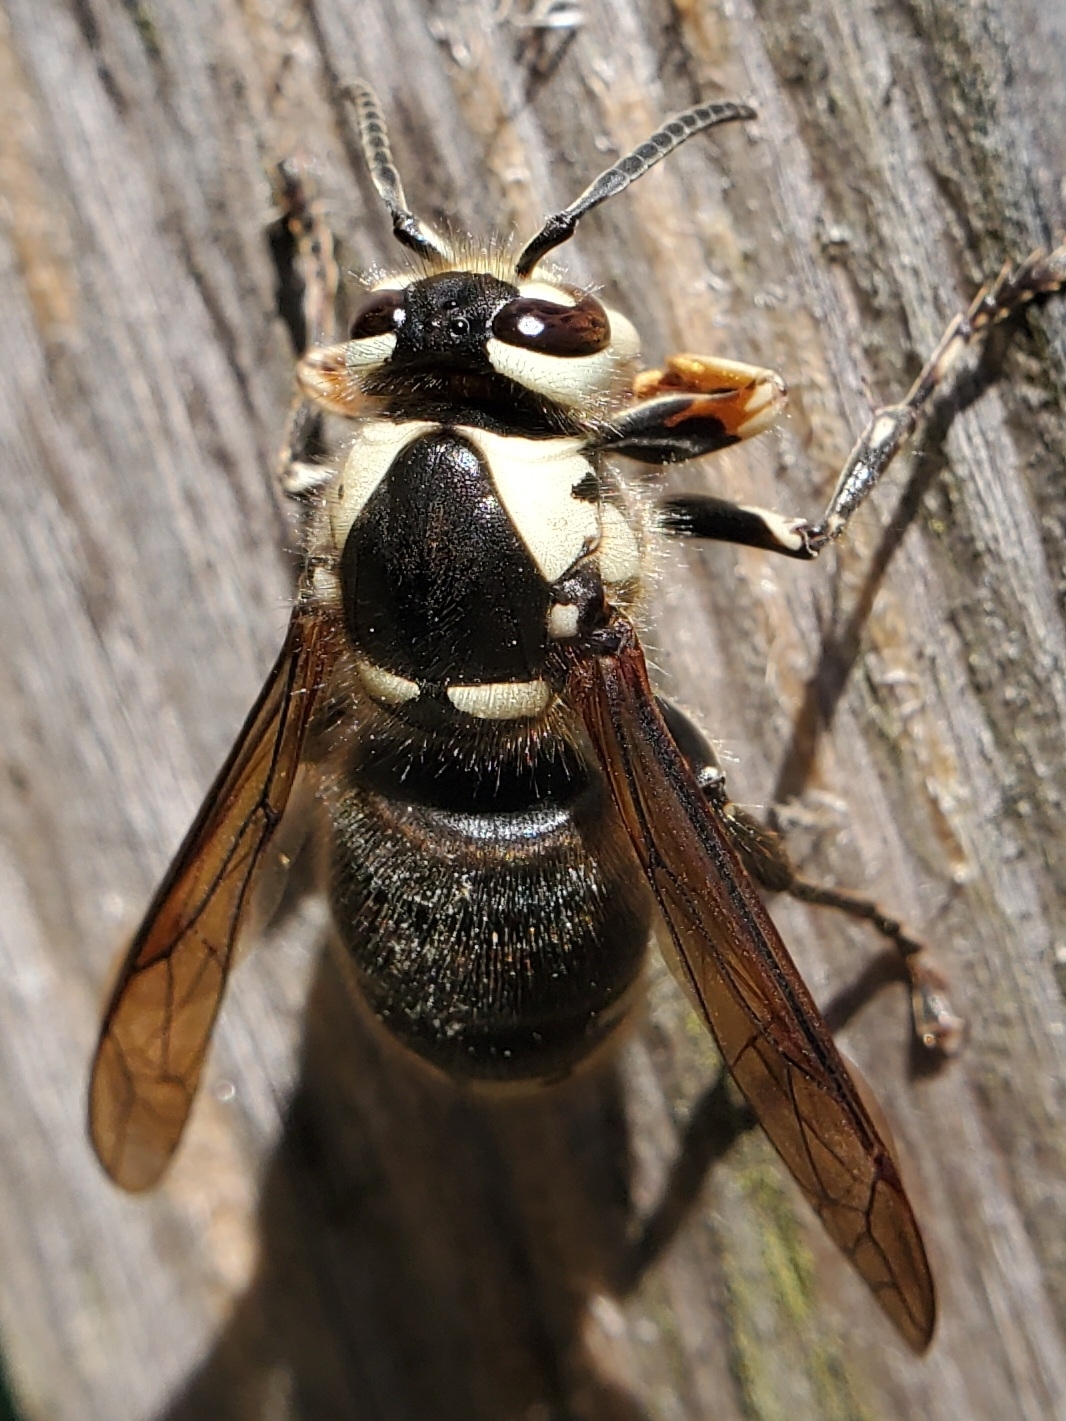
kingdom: Animalia
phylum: Arthropoda
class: Insecta
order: Hymenoptera
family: Vespidae
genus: Dolichovespula
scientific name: Dolichovespula maculata
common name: Bald-faced hornet
